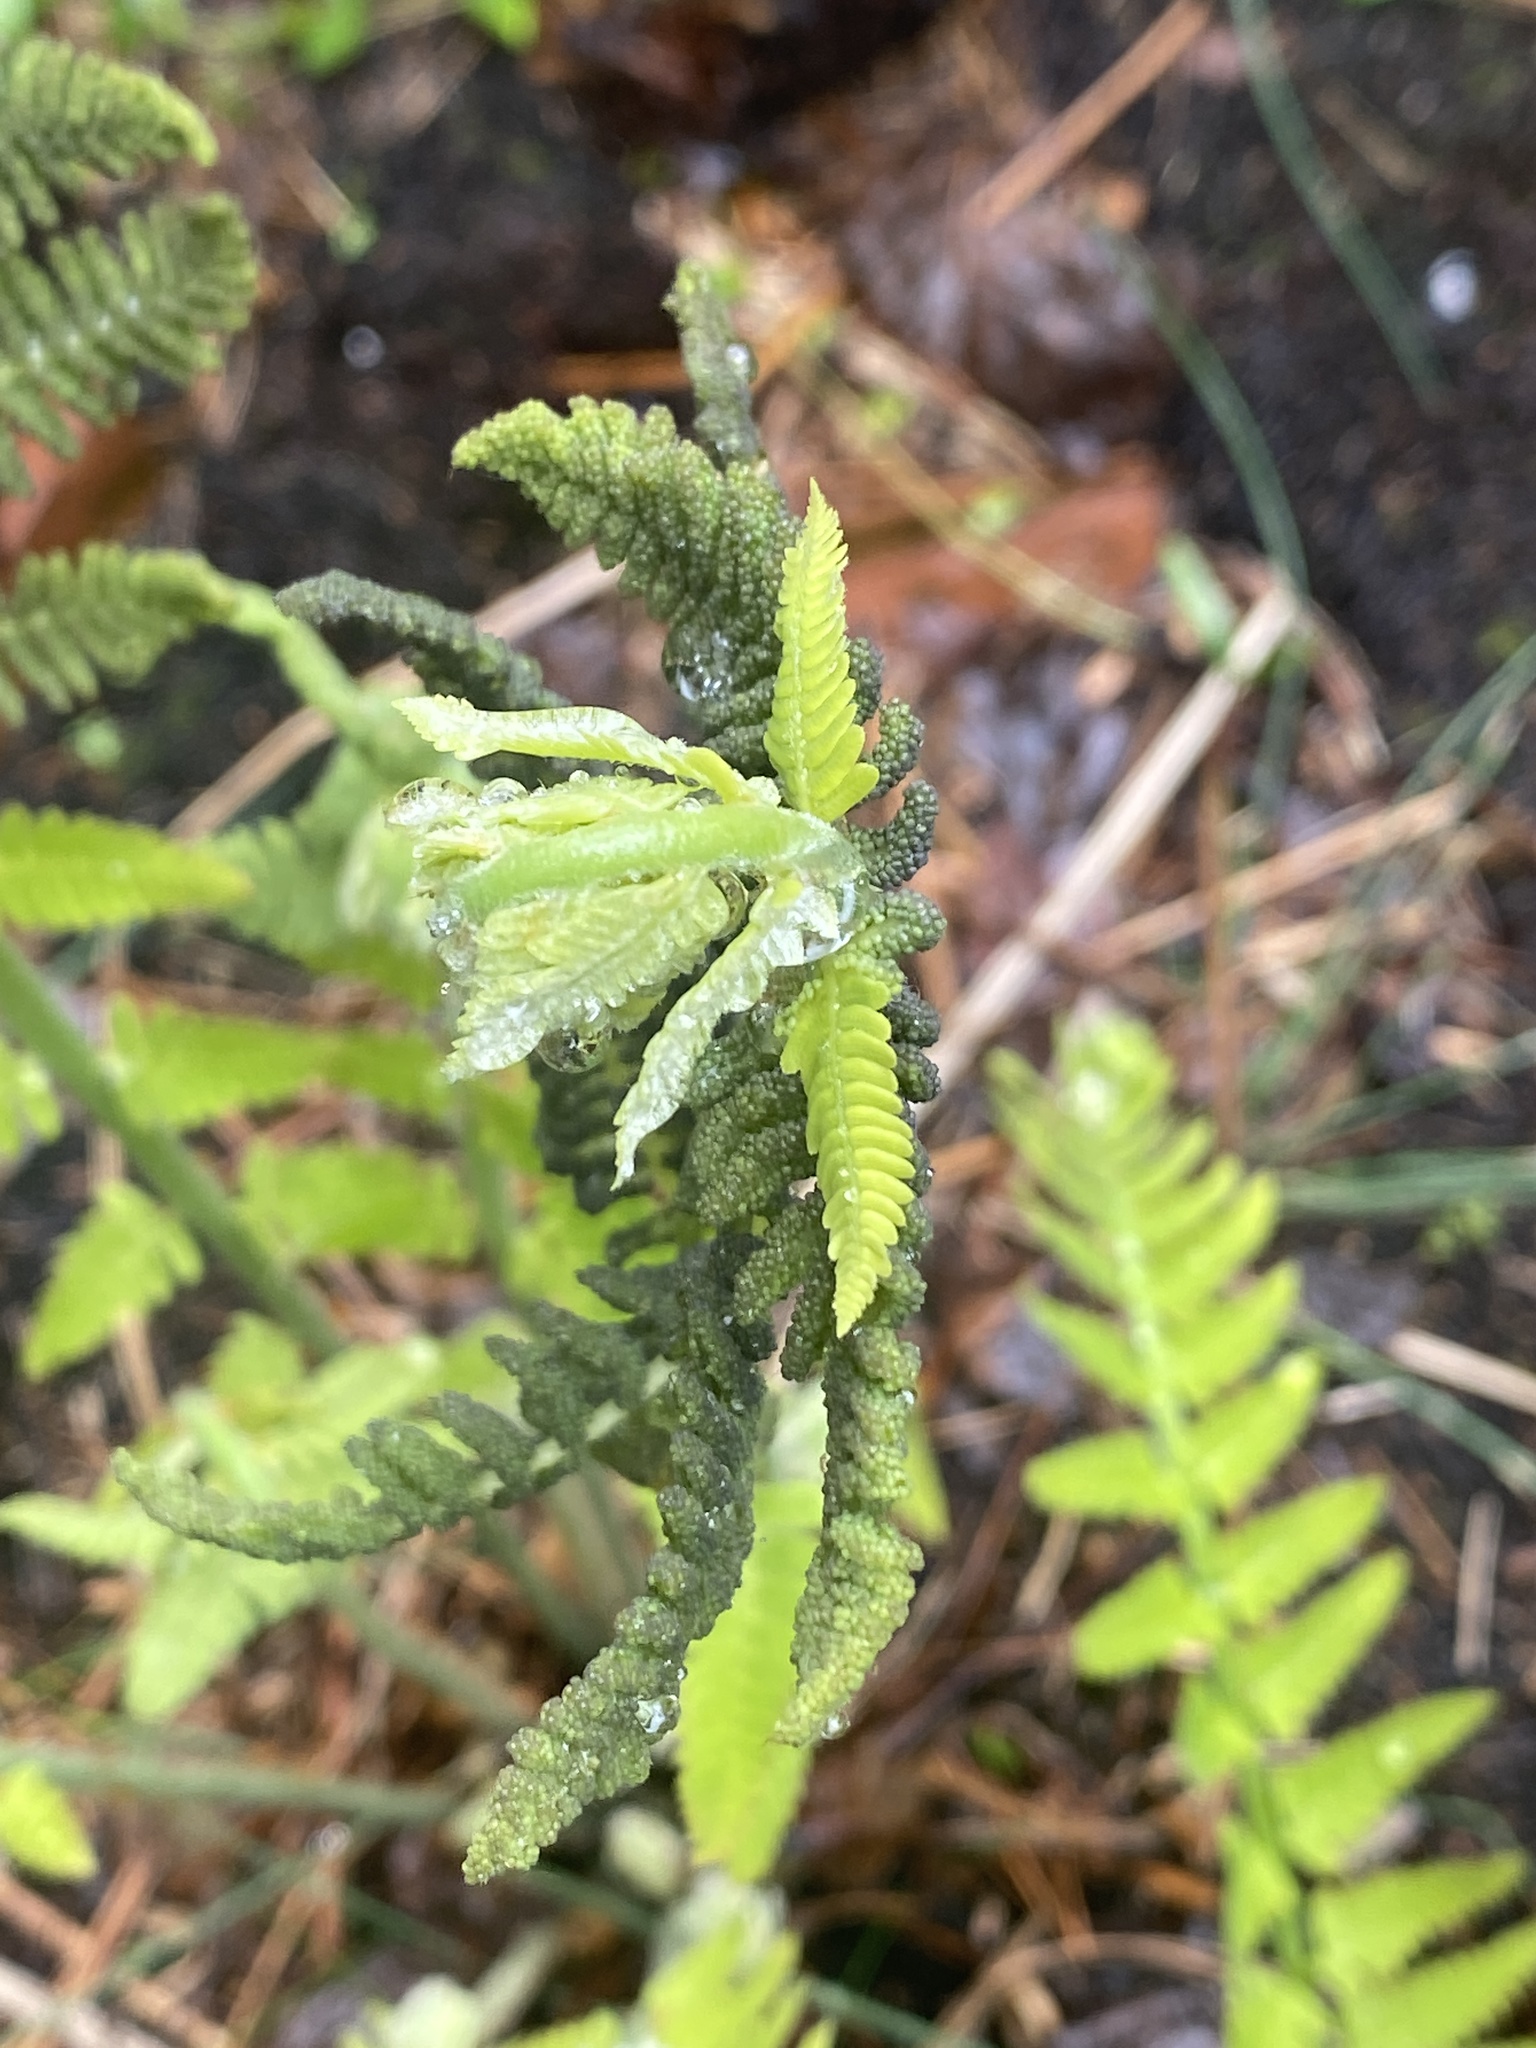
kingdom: Plantae
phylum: Tracheophyta
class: Polypodiopsida
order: Osmundales
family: Osmundaceae
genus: Claytosmunda
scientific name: Claytosmunda claytoniana
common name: Clayton's fern
